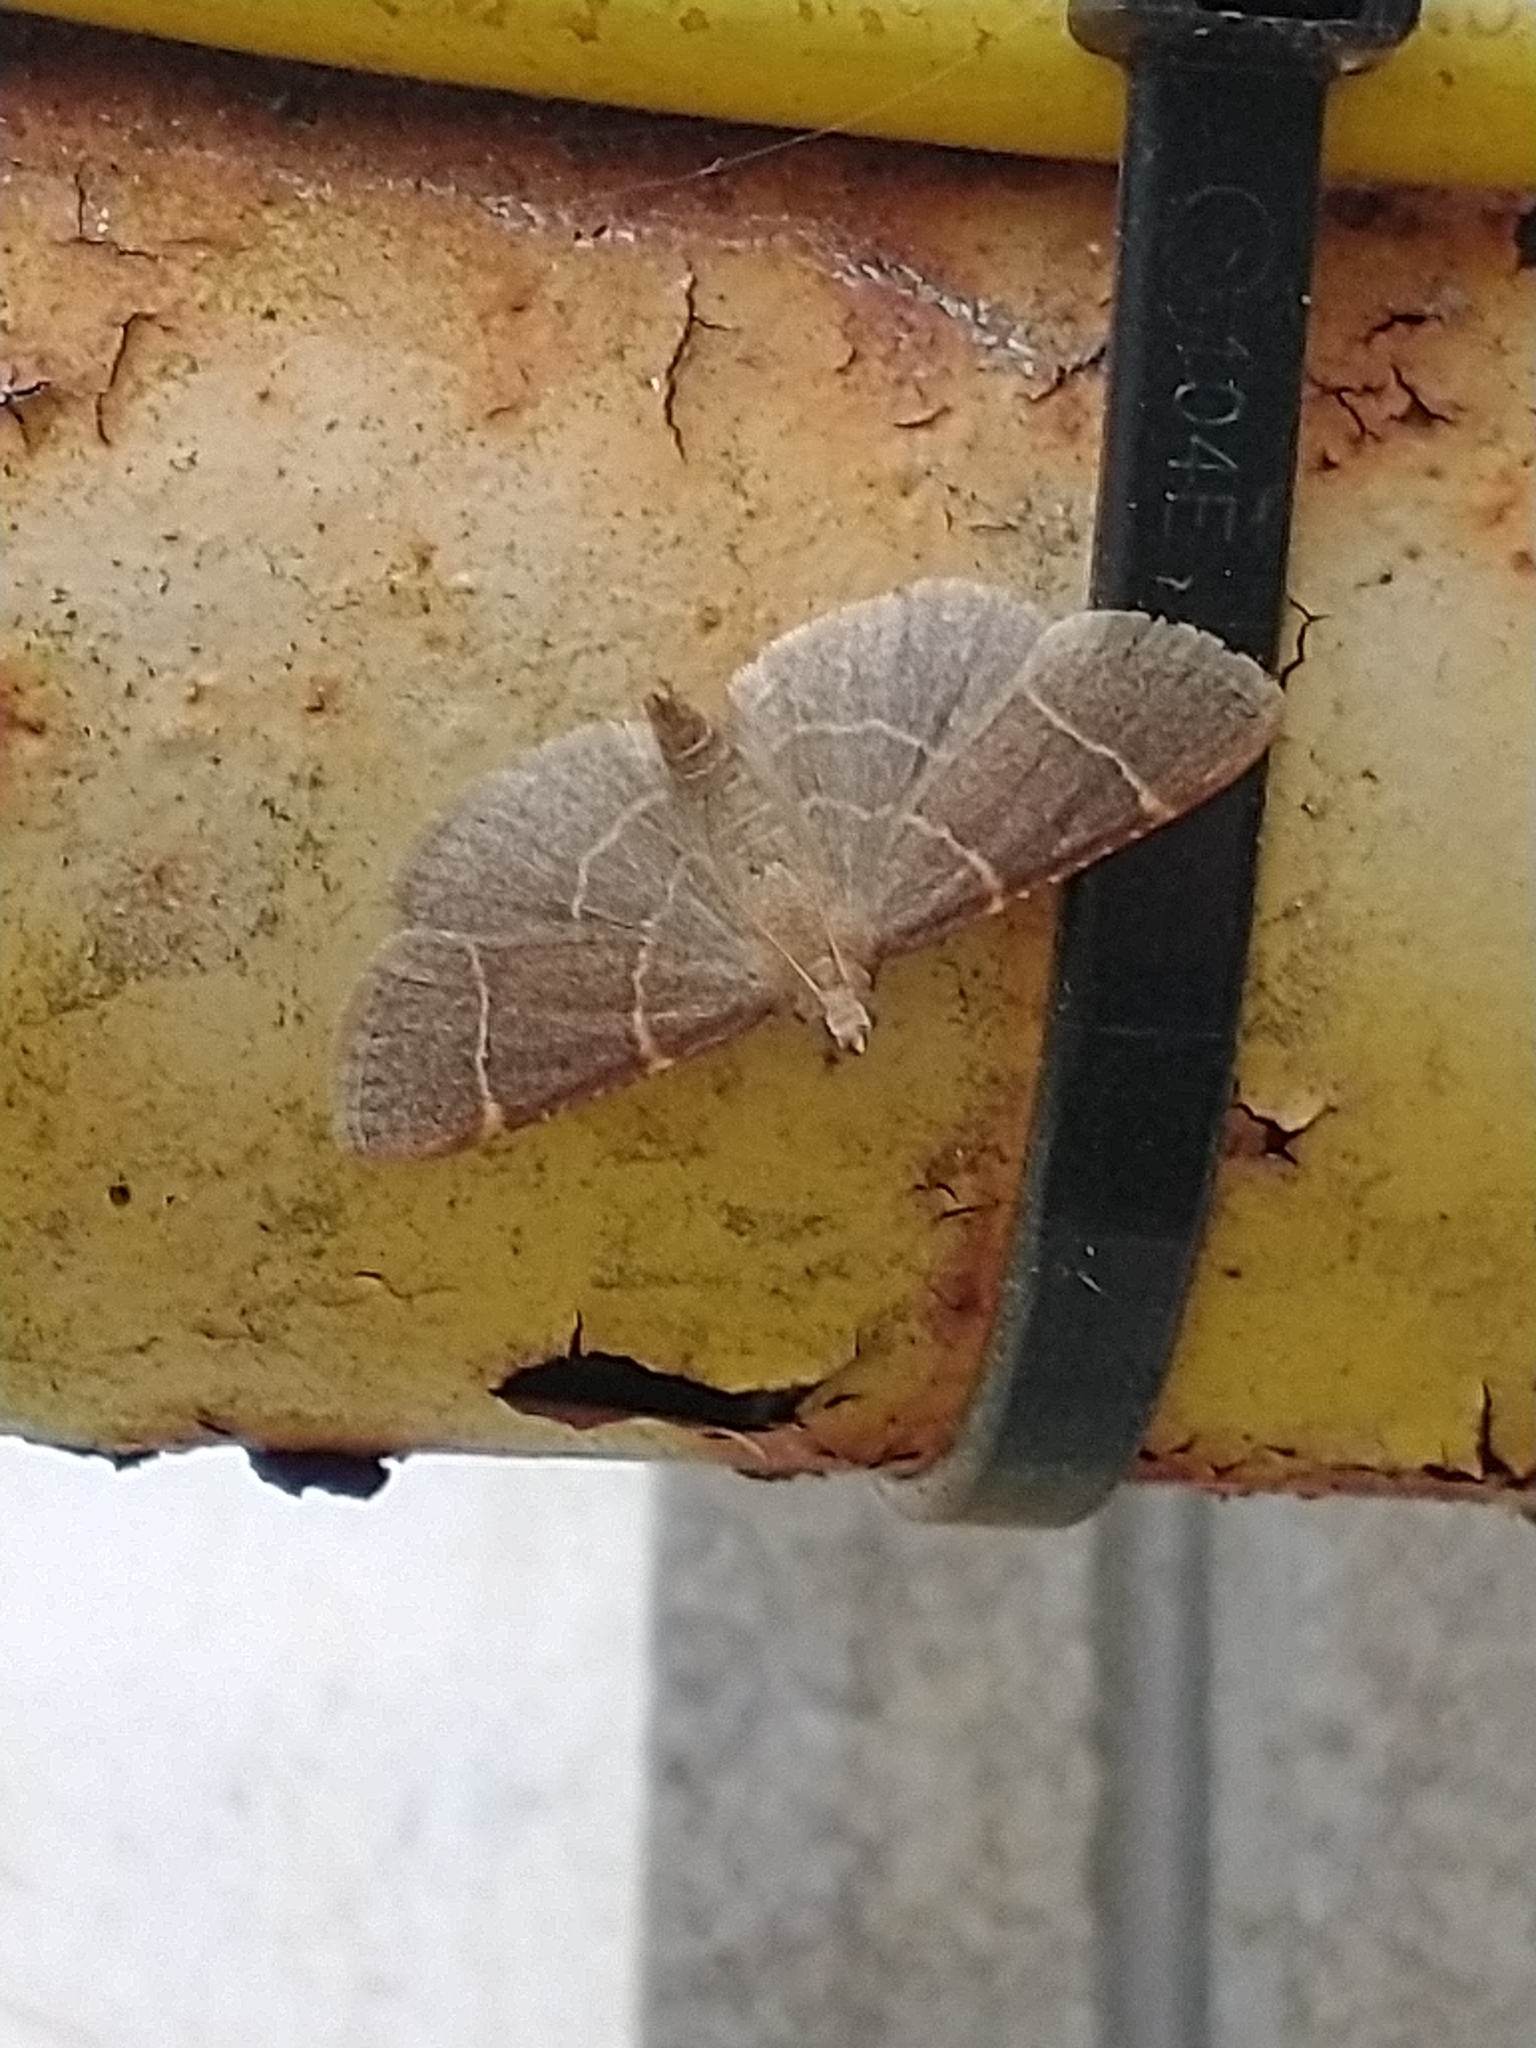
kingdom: Animalia
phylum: Arthropoda
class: Insecta
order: Lepidoptera
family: Pyralidae
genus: Hypsopygia
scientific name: Hypsopygia glaucinalis
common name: Double-striped tabby
